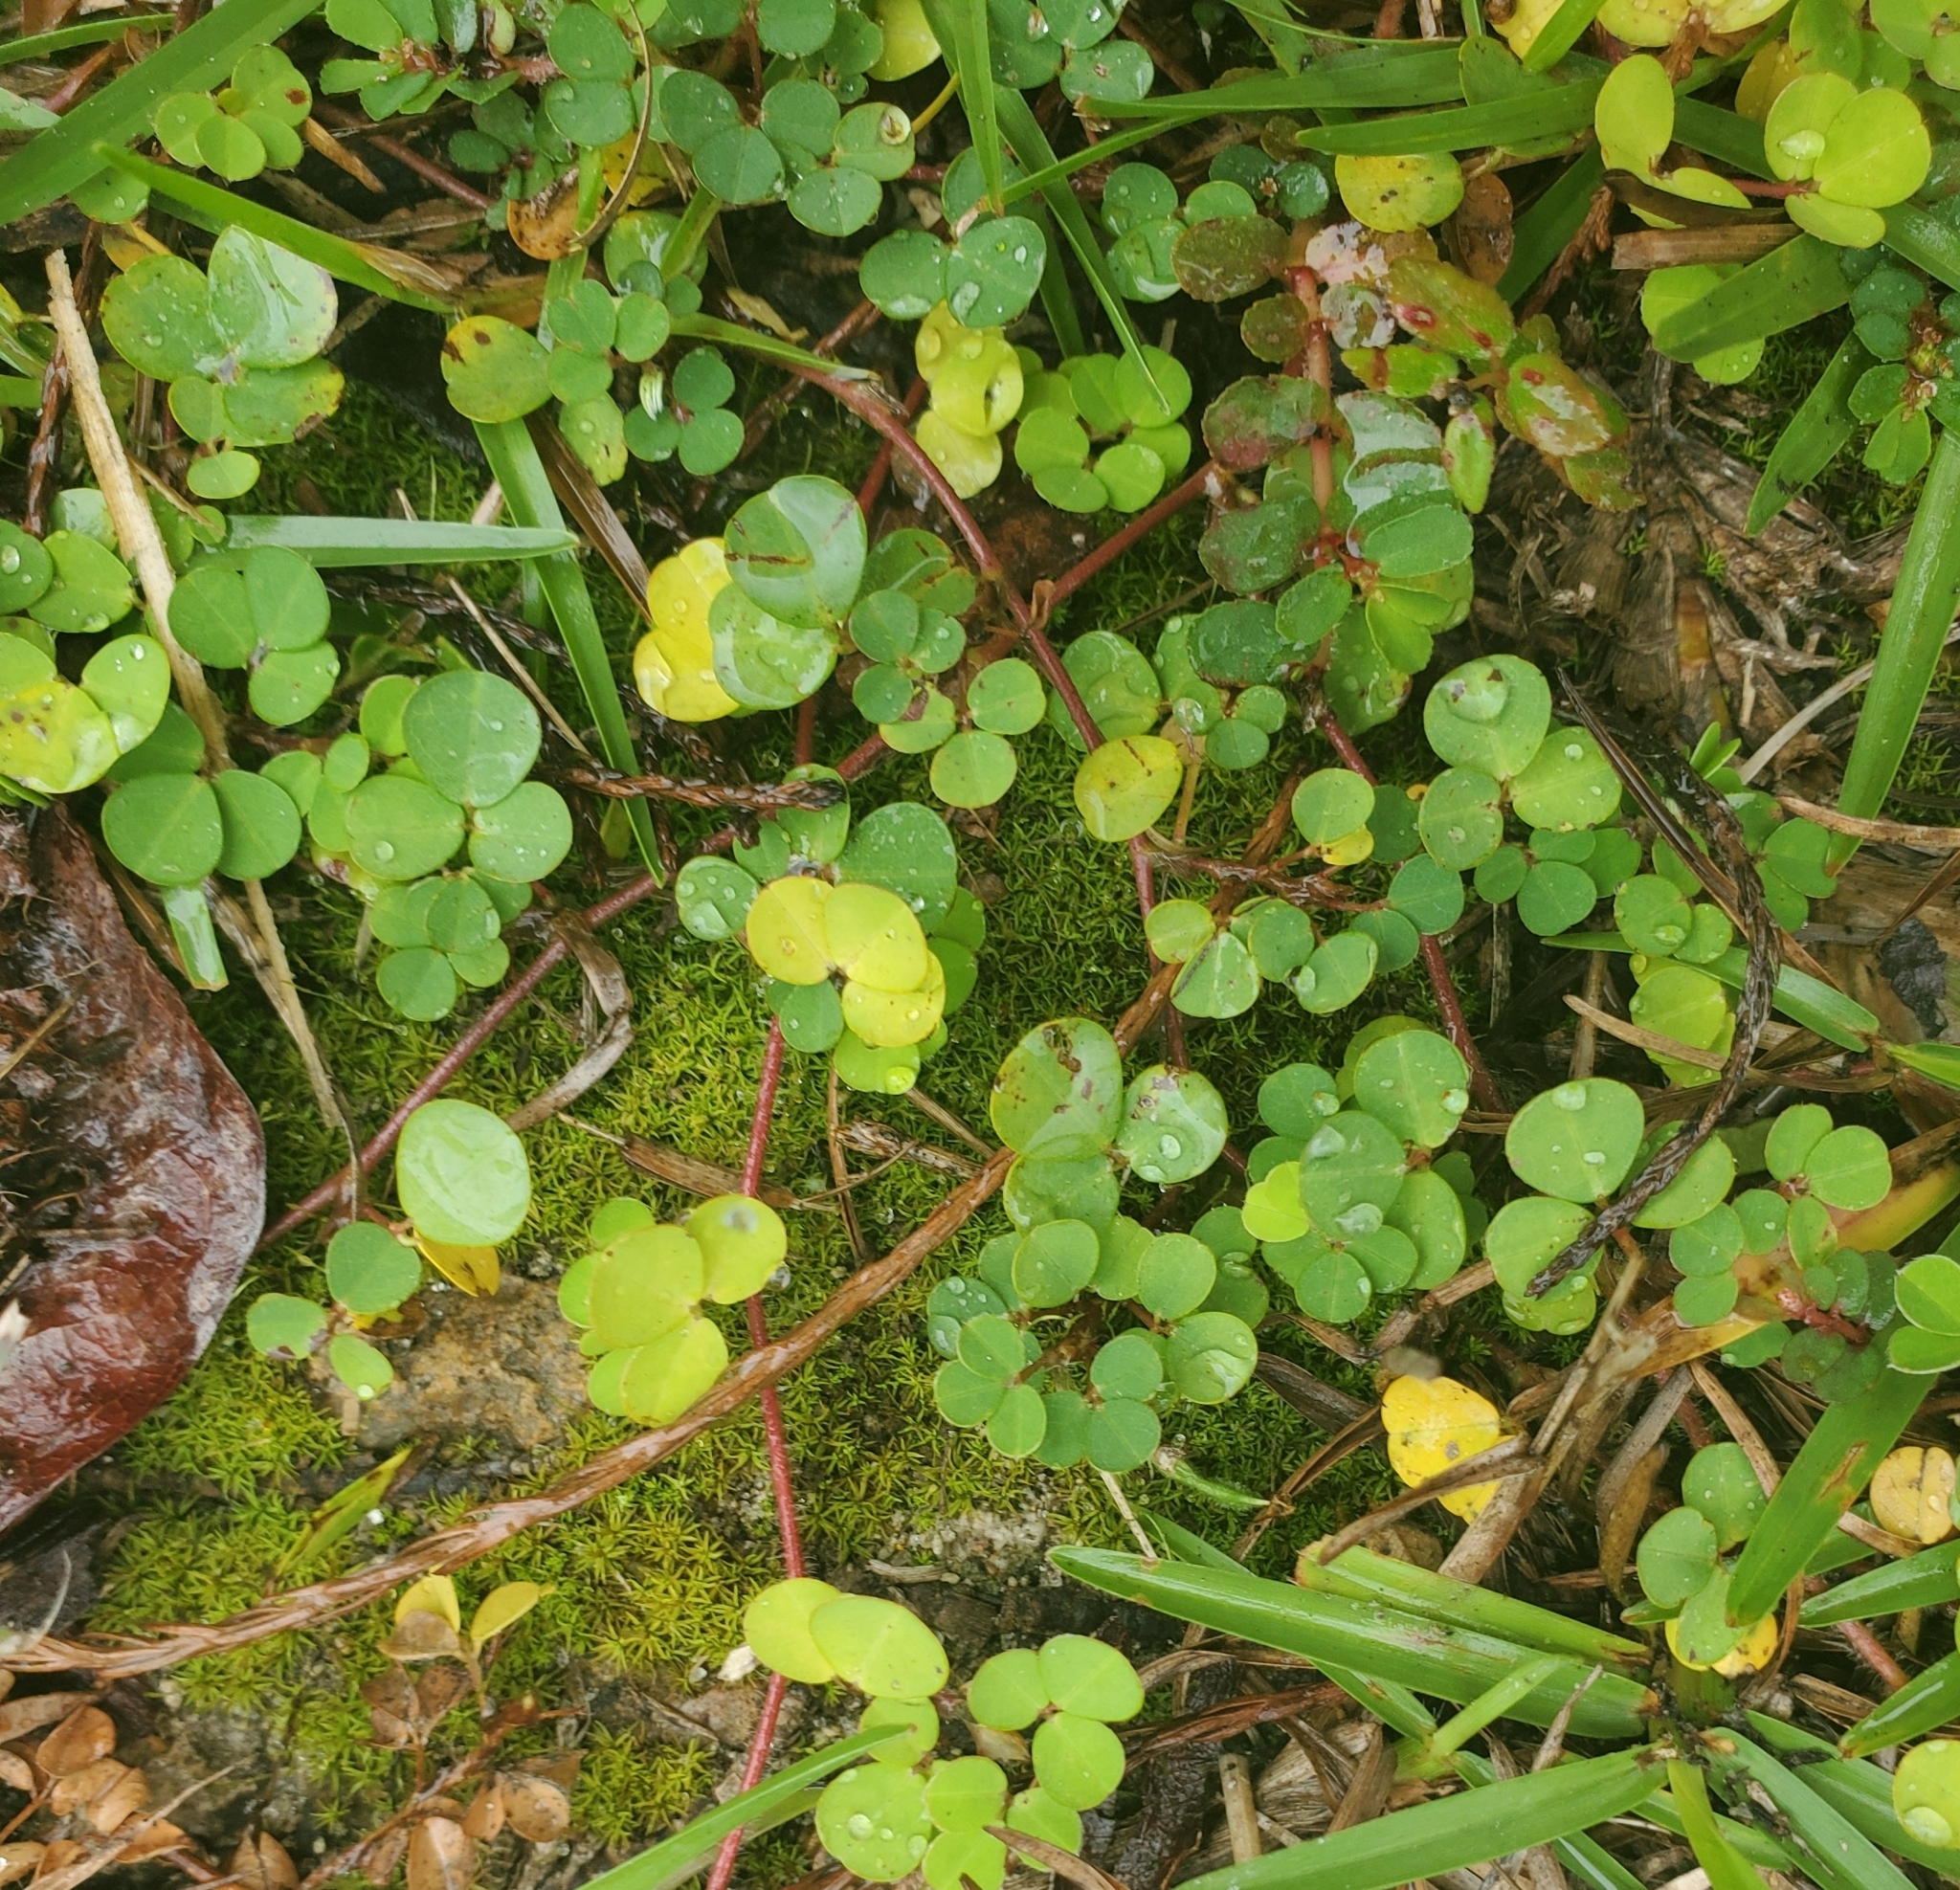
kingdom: Plantae
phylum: Tracheophyta
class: Magnoliopsida
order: Fabales
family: Fabaceae
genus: Grona
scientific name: Grona triflora
